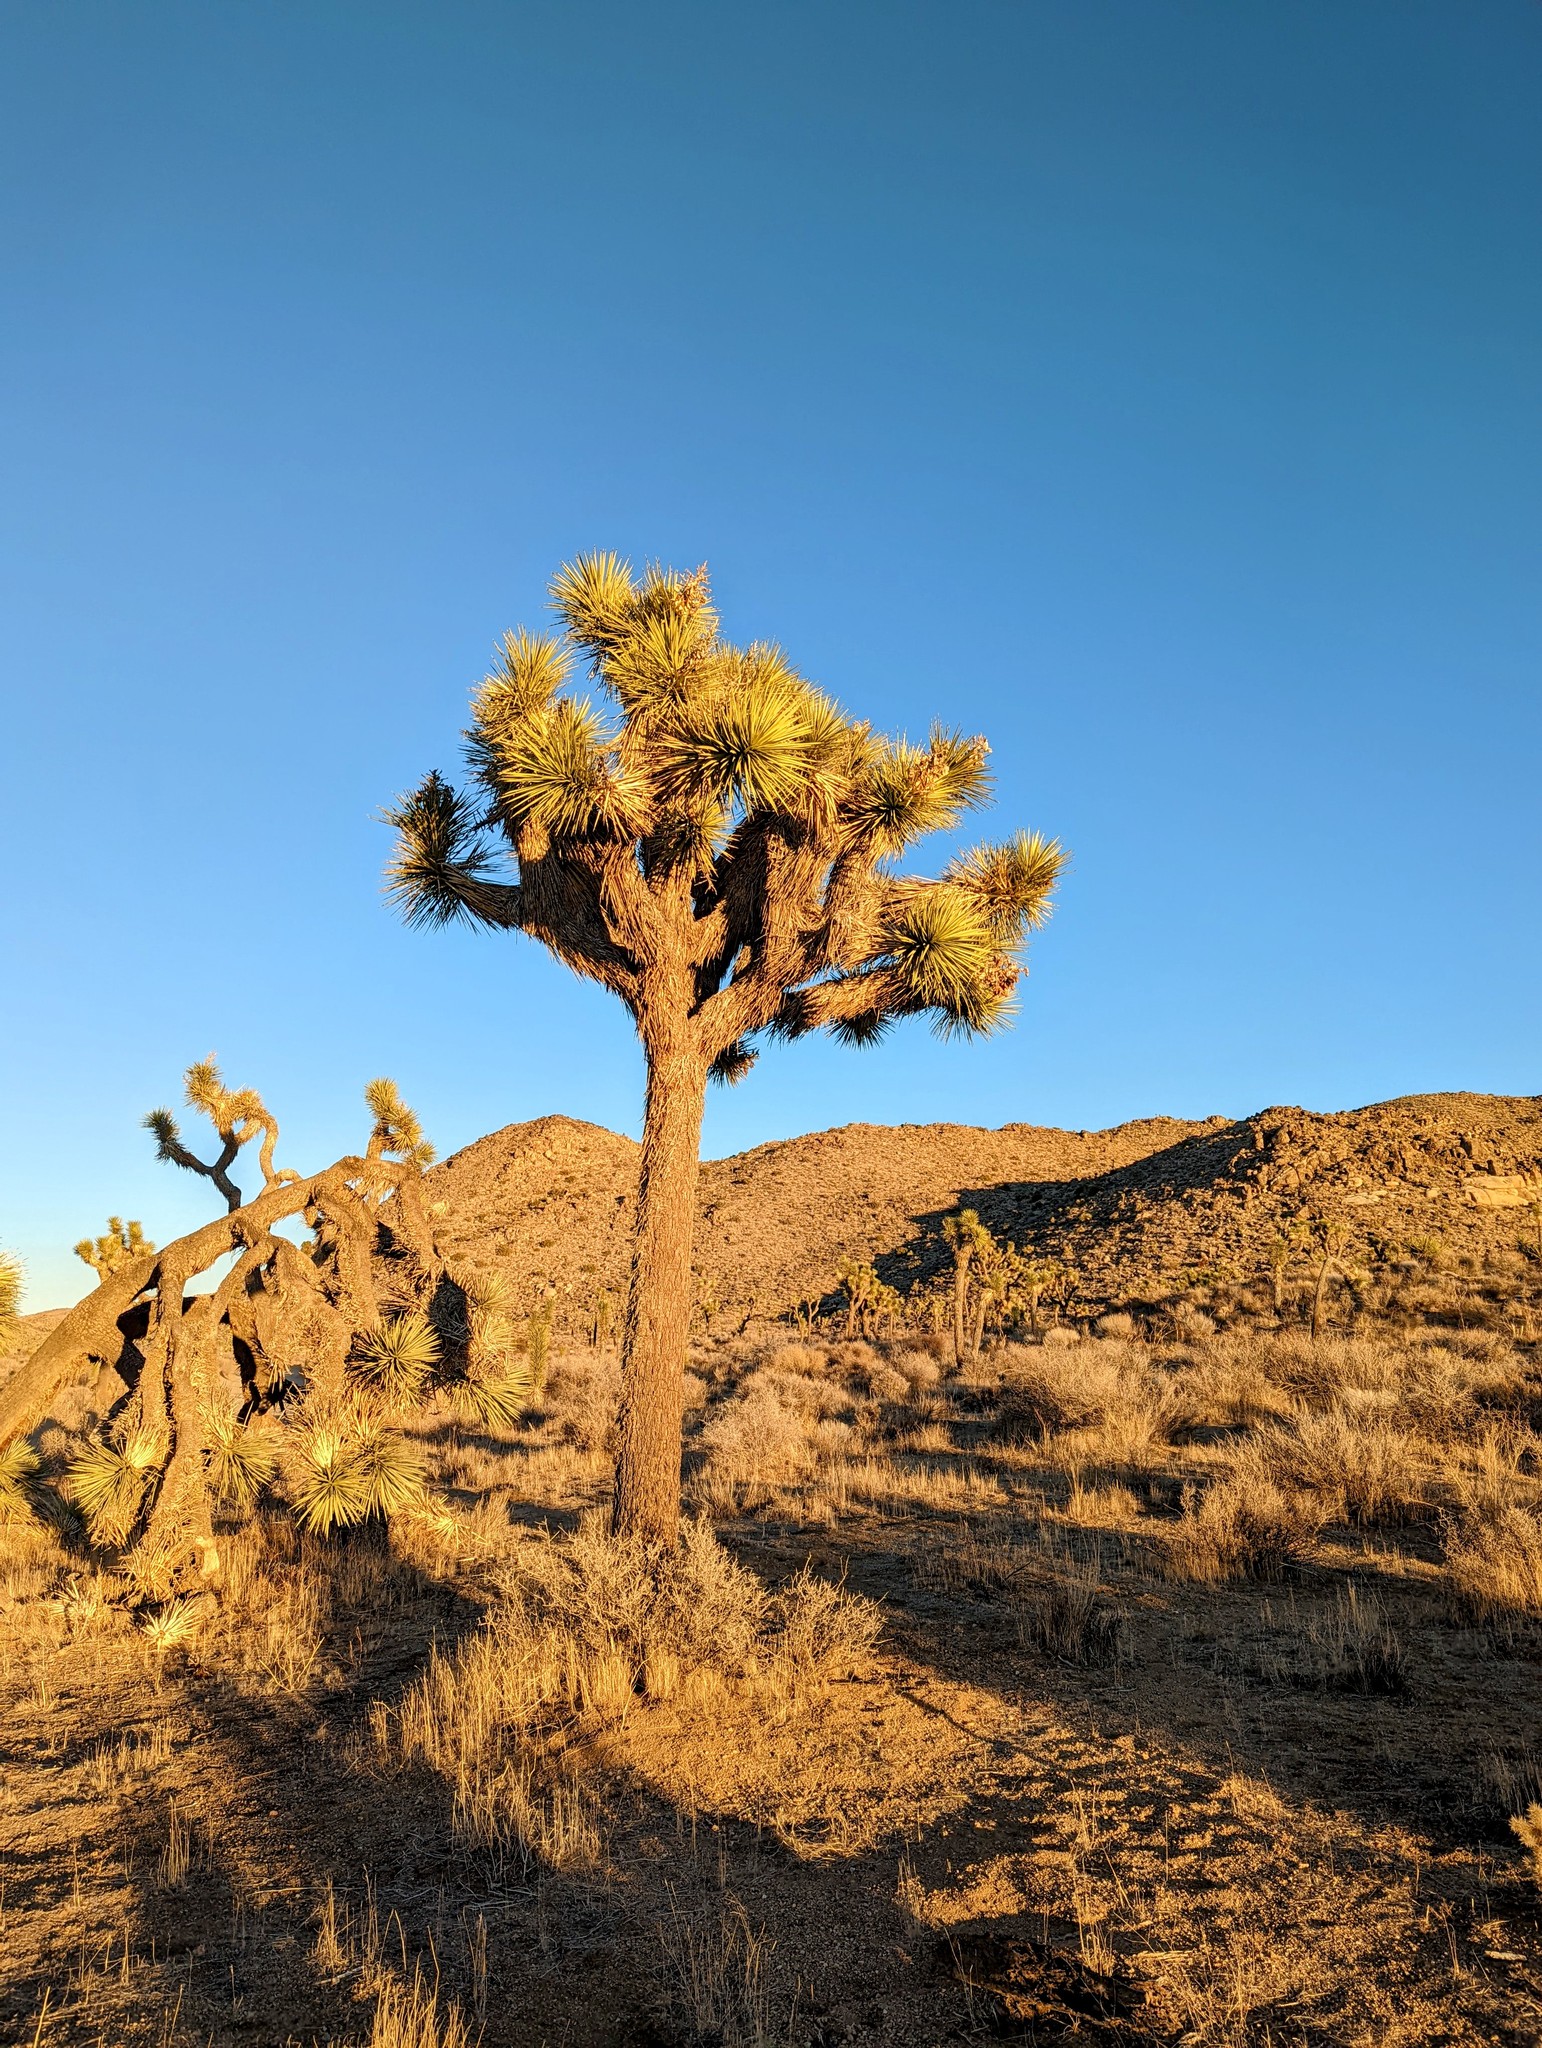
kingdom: Plantae
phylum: Tracheophyta
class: Liliopsida
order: Asparagales
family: Asparagaceae
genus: Yucca
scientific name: Yucca brevifolia
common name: Joshua tree
